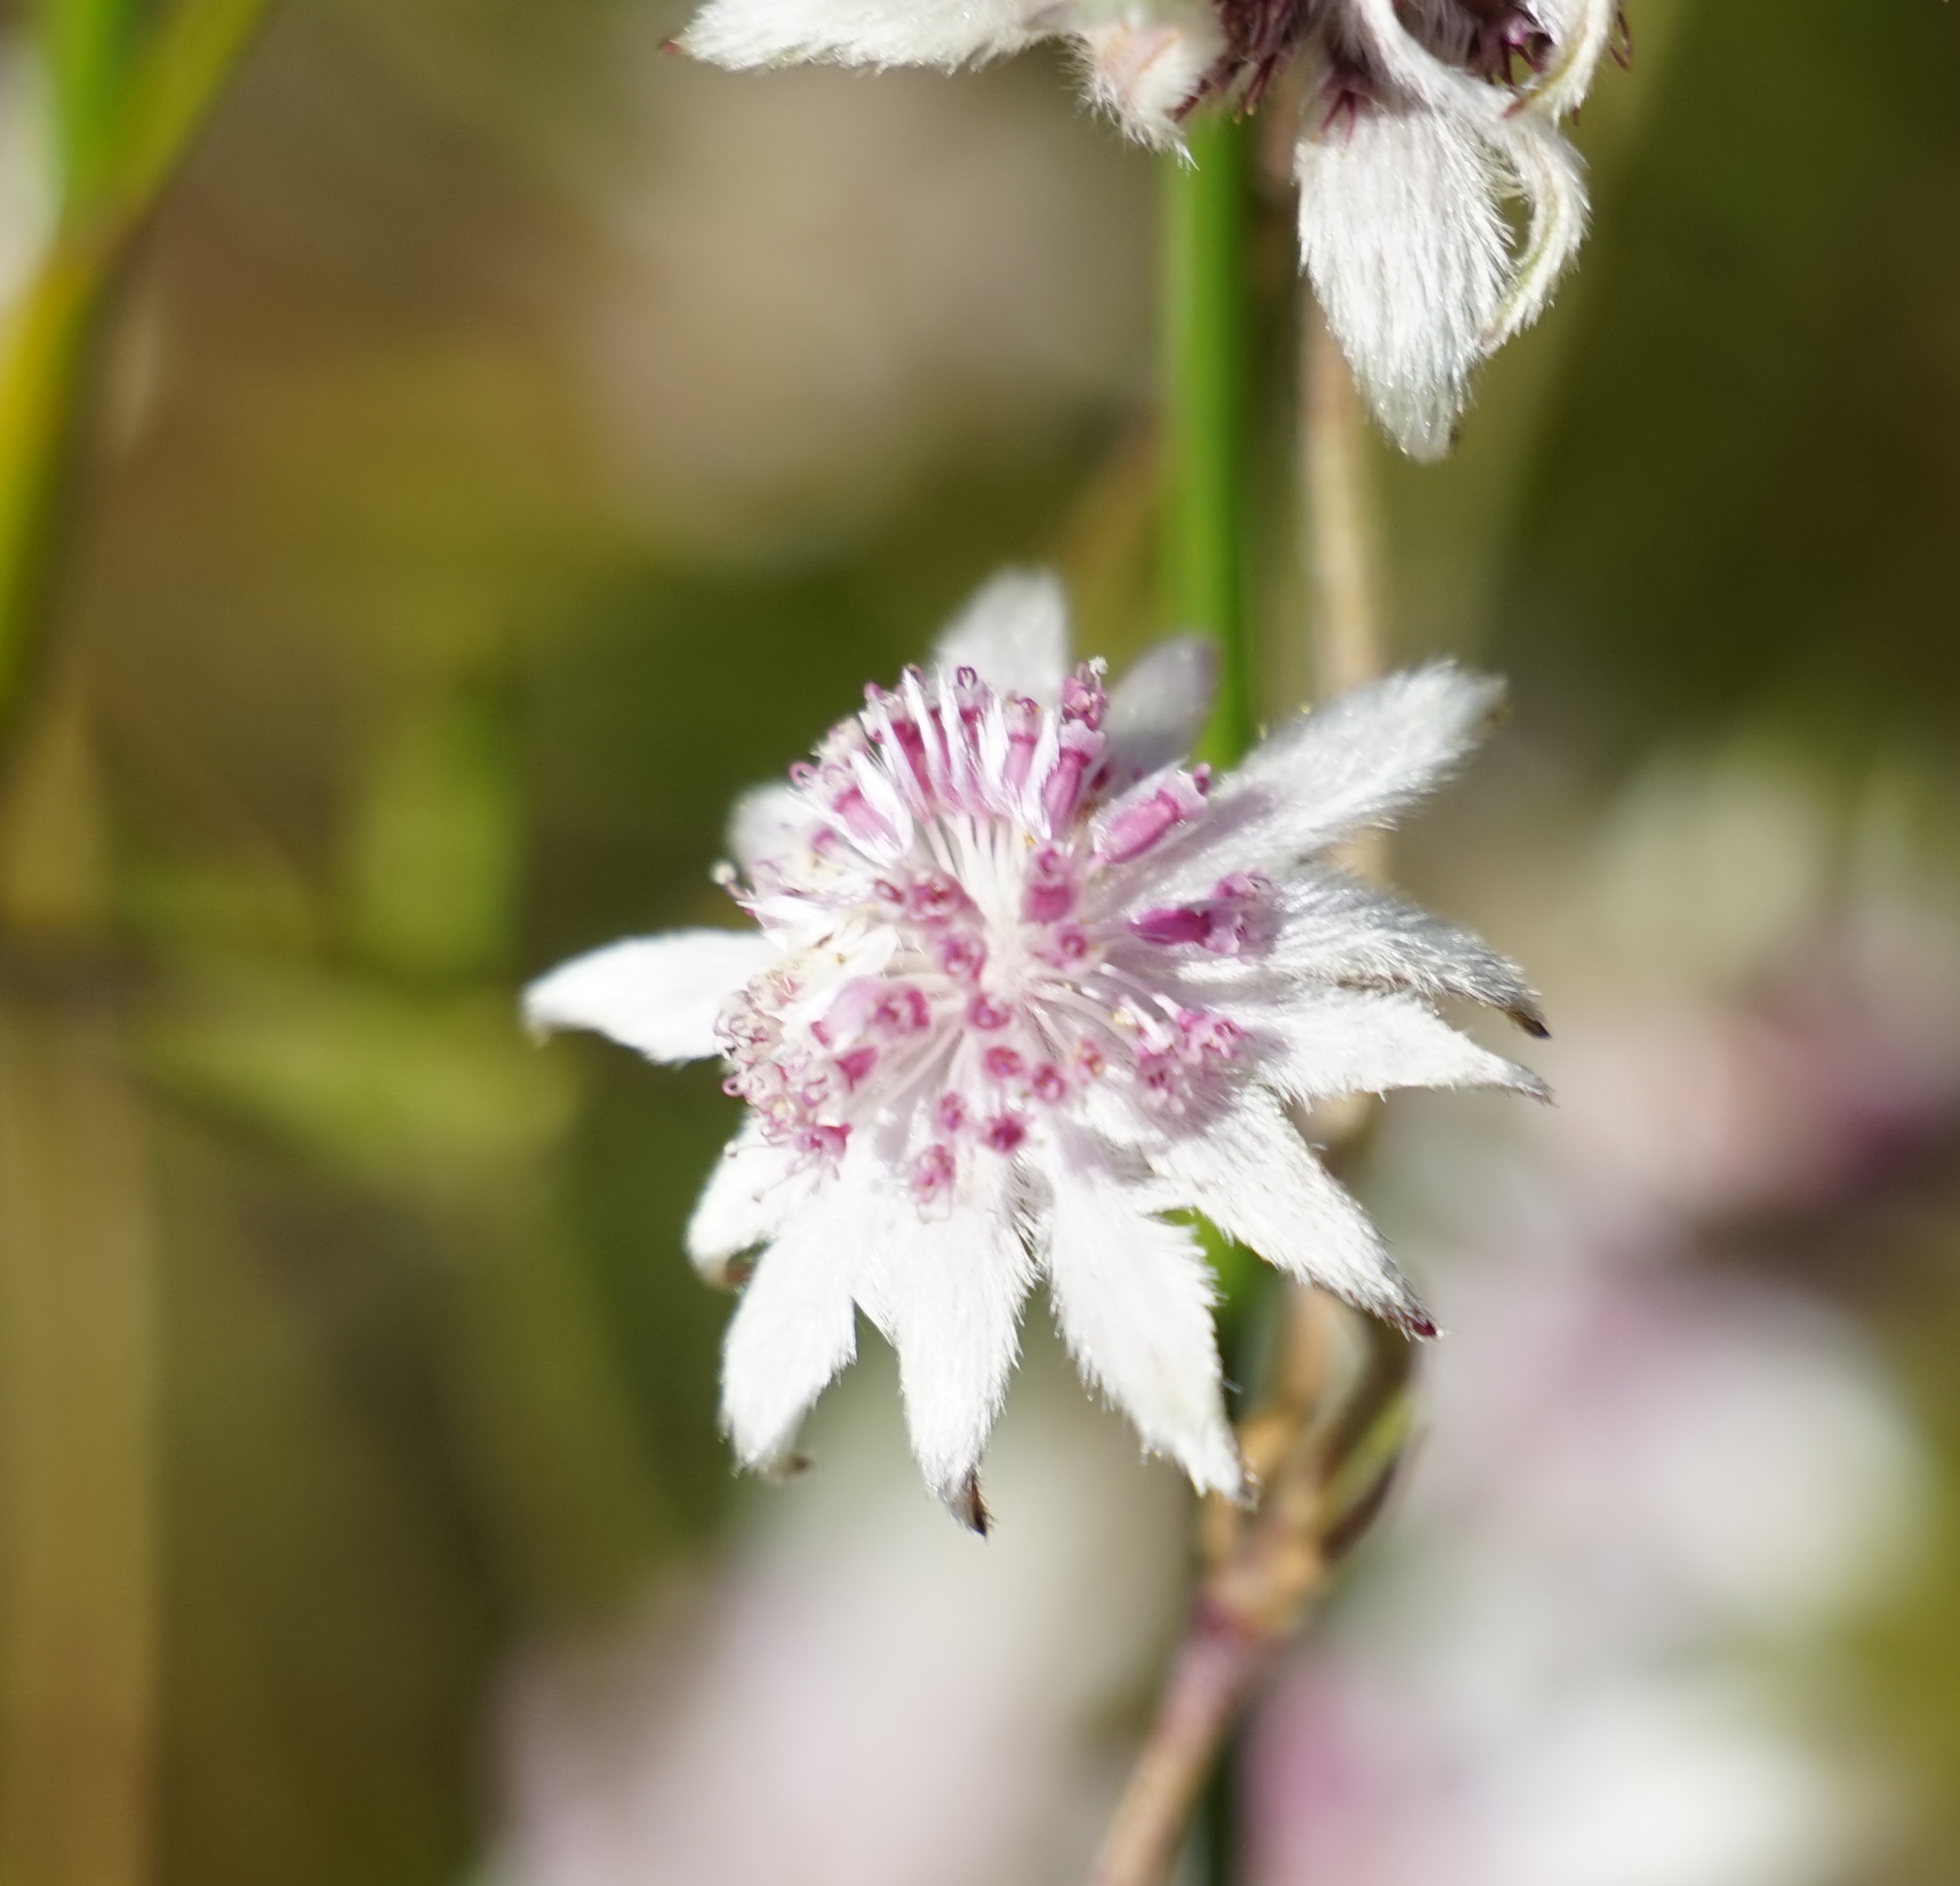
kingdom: Plantae
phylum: Tracheophyta
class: Magnoliopsida
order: Apiales
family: Apiaceae
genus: Actinotus
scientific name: Actinotus forsythii
